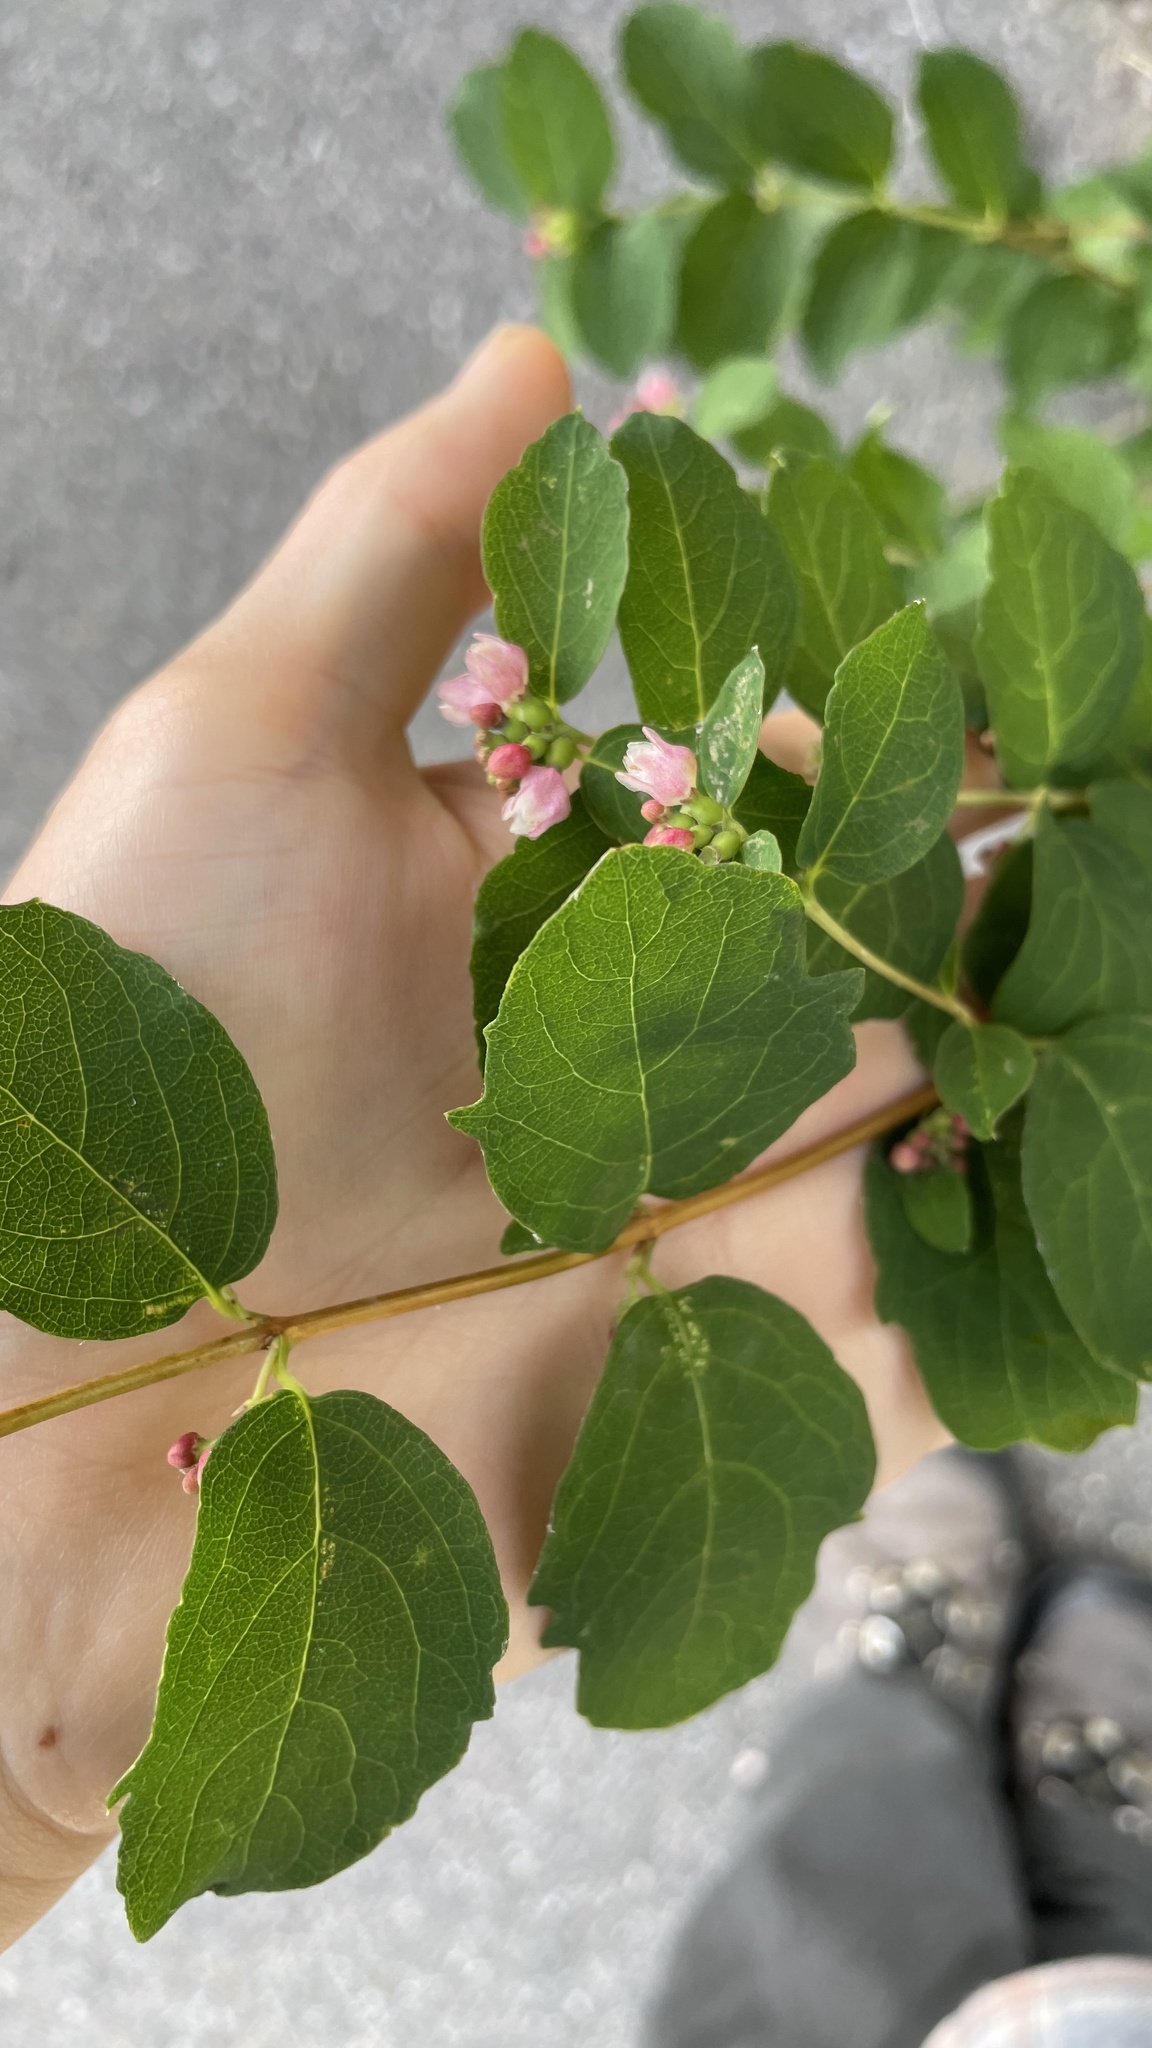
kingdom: Plantae
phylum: Tracheophyta
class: Magnoliopsida
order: Dipsacales
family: Caprifoliaceae
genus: Symphoricarpos
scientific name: Symphoricarpos albus
